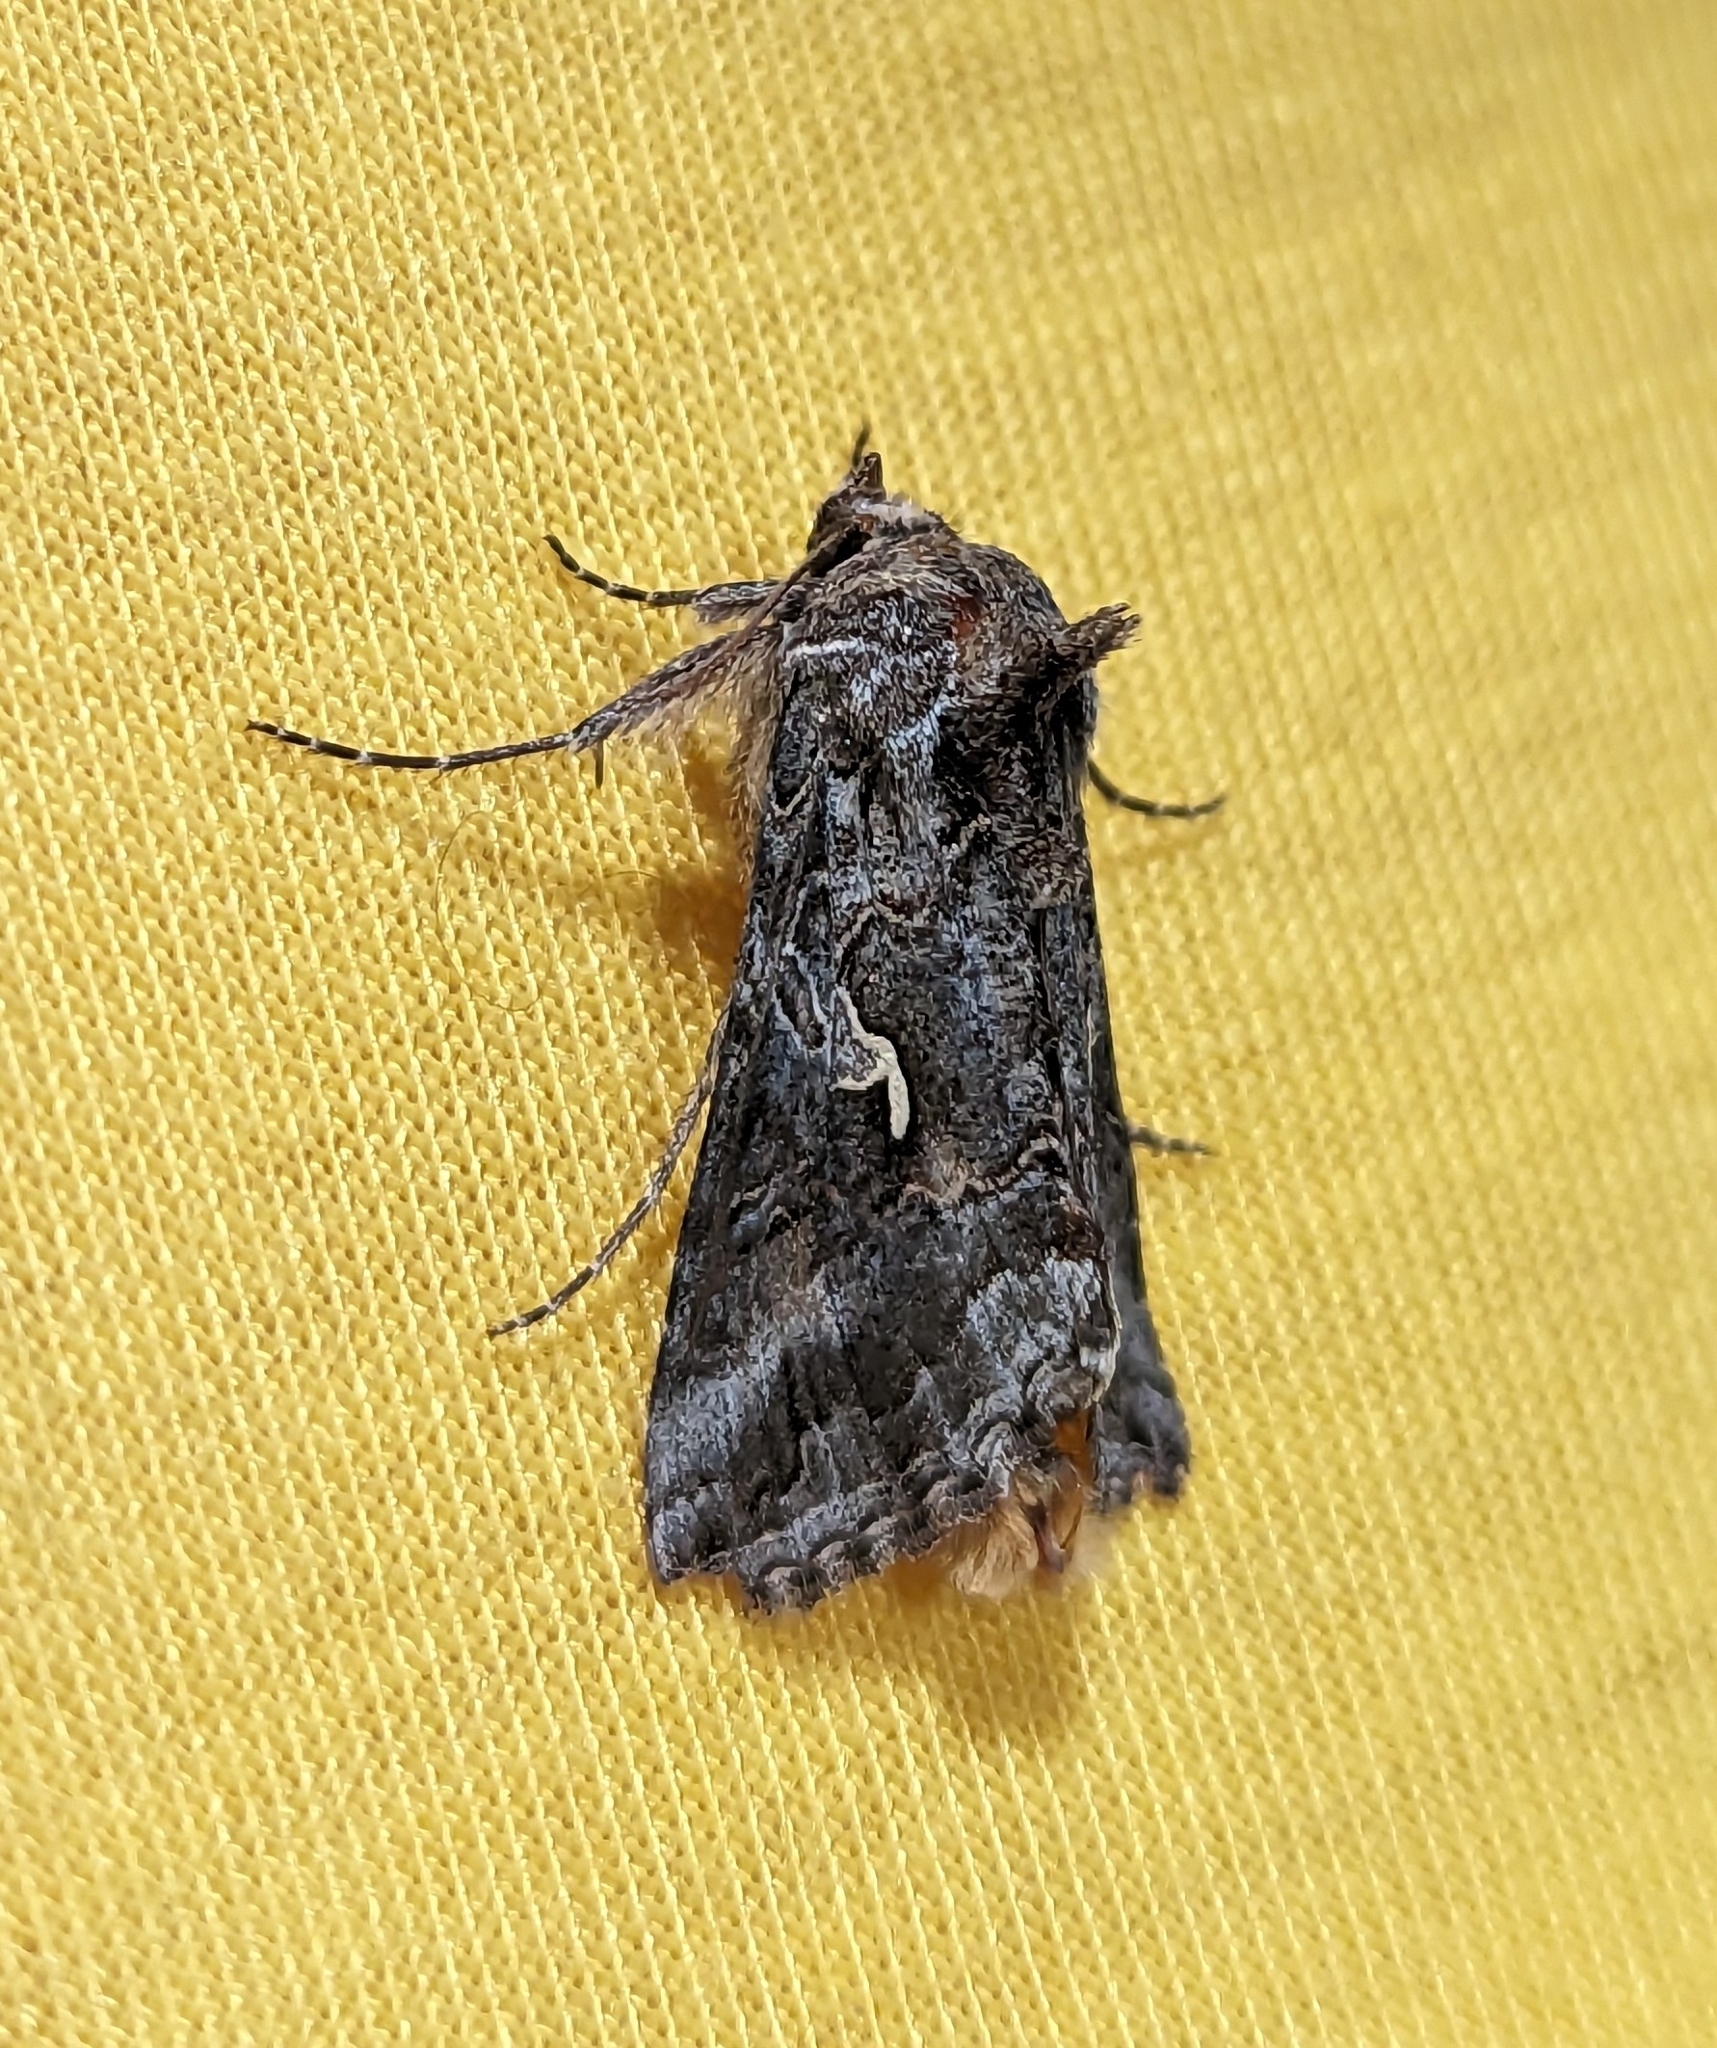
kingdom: Animalia
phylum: Arthropoda
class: Insecta
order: Lepidoptera
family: Noctuidae
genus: Autographa
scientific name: Autographa californica
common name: Alfalfa looper
